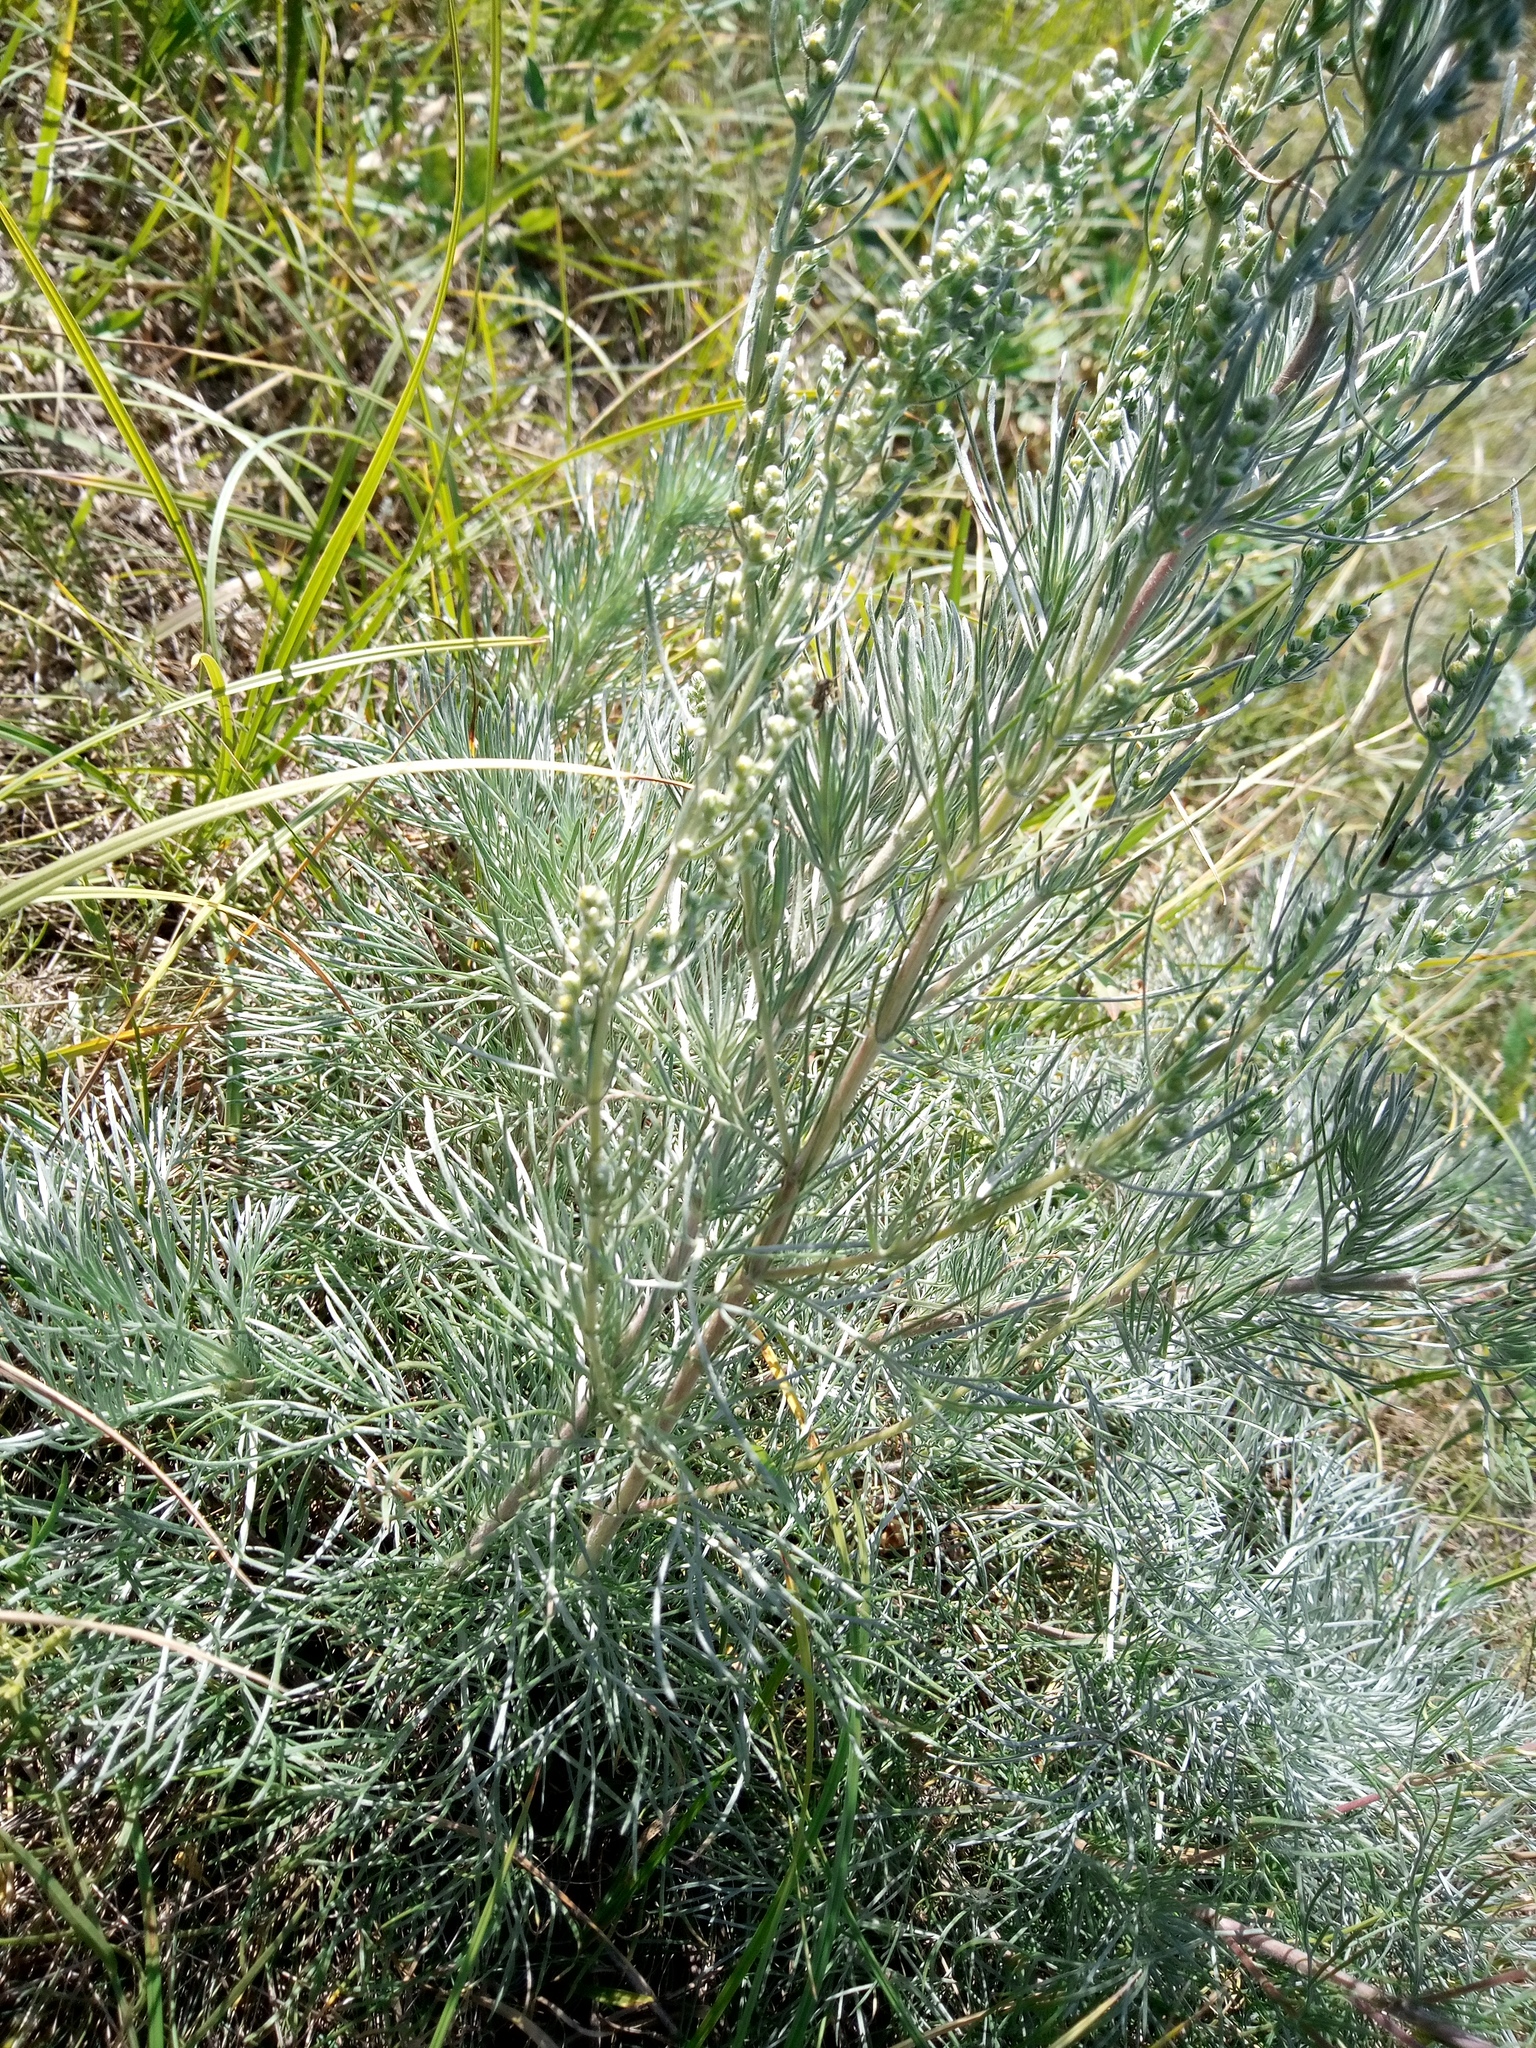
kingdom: Plantae
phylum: Tracheophyta
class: Magnoliopsida
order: Asterales
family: Asteraceae
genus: Artemisia
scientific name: Artemisia marschalliana
